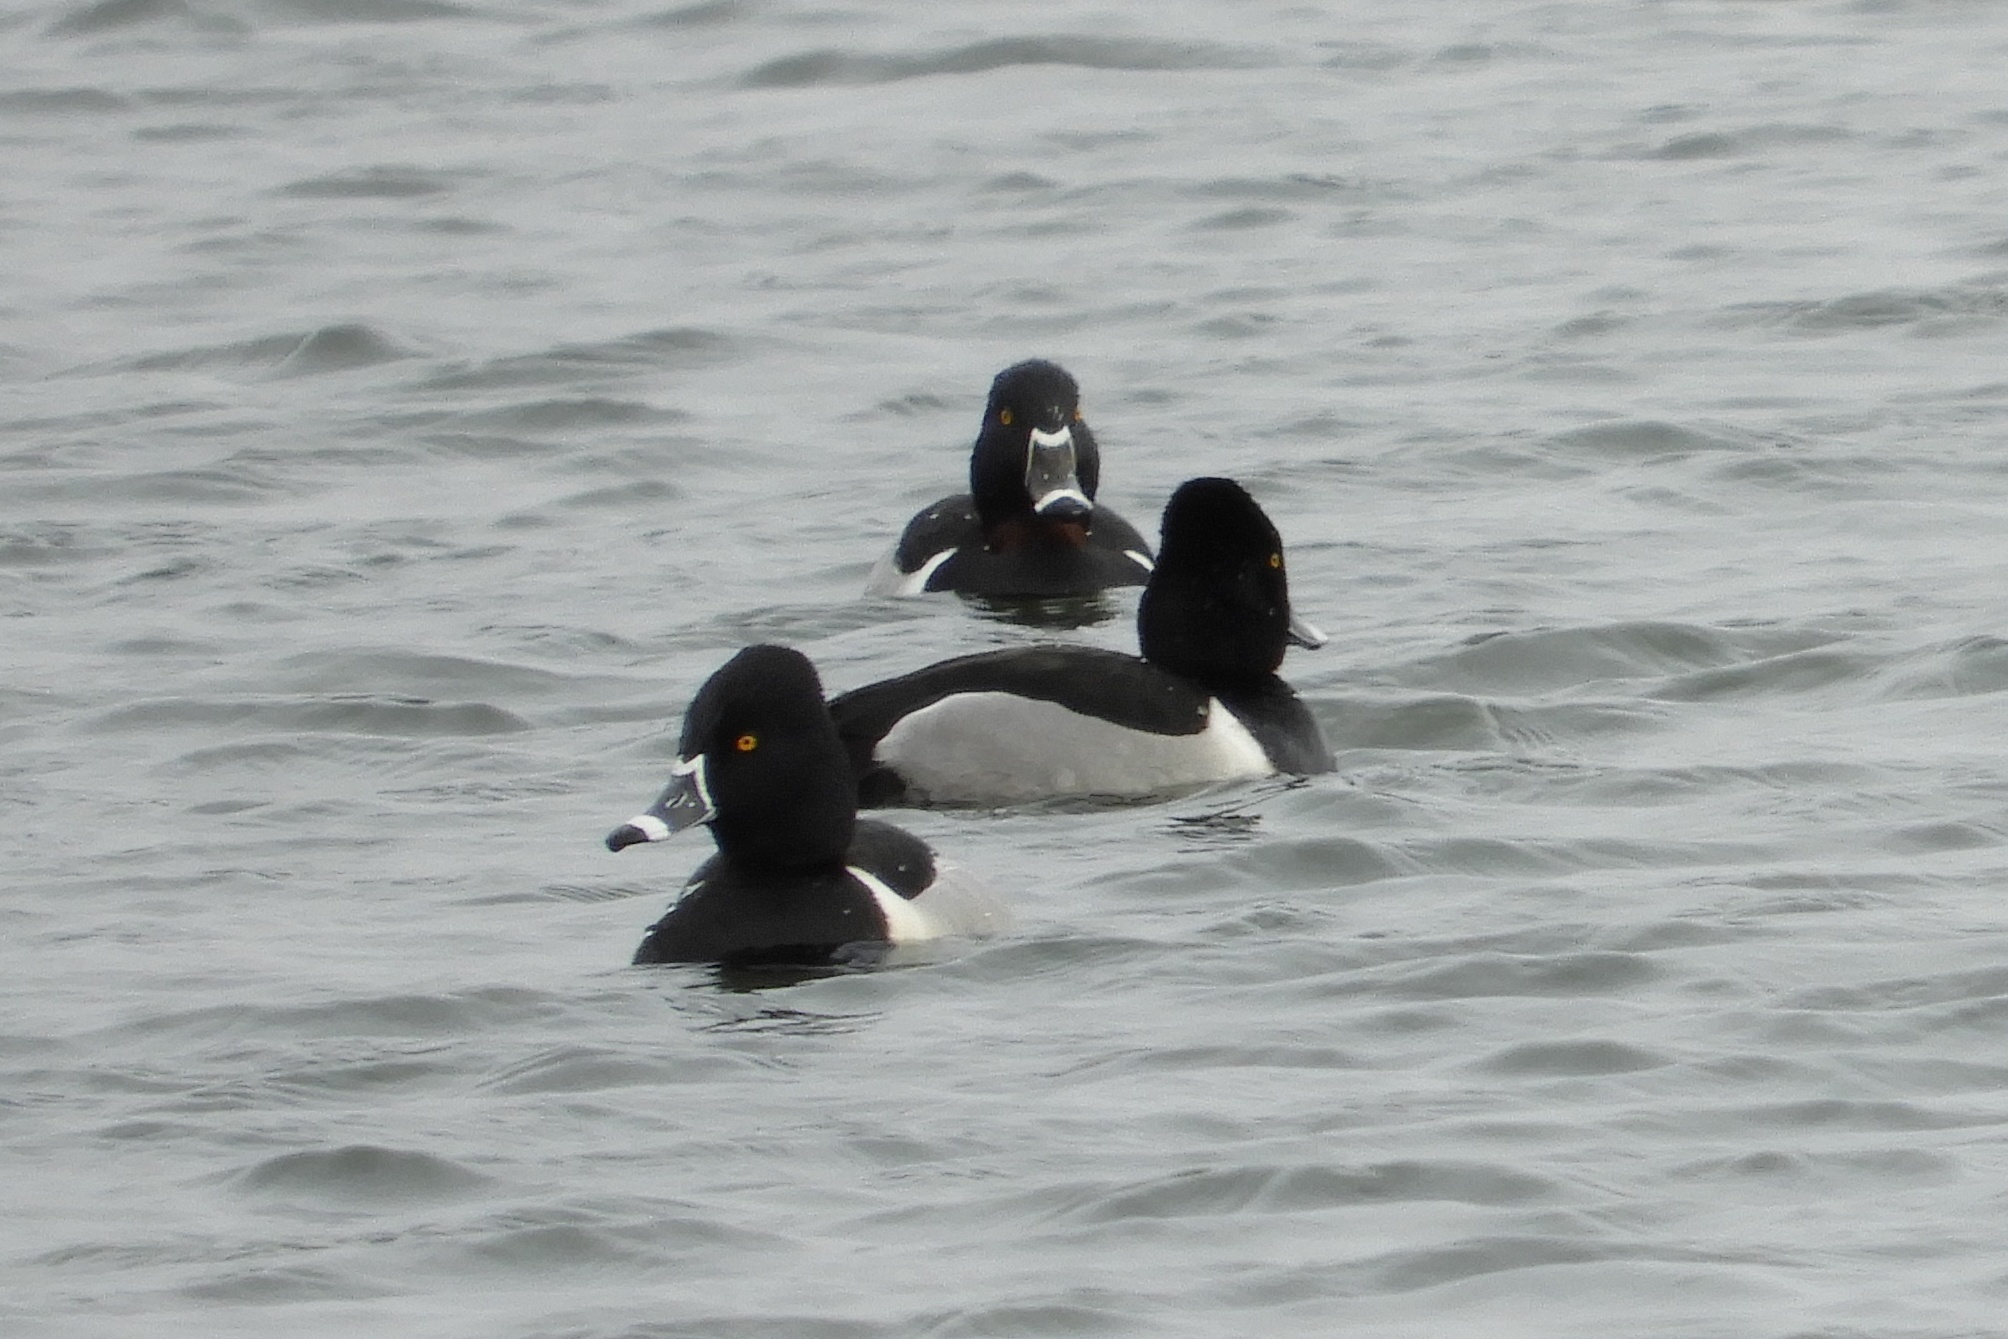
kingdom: Animalia
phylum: Chordata
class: Aves
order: Anseriformes
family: Anatidae
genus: Aythya
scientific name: Aythya collaris
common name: Ring-necked duck
